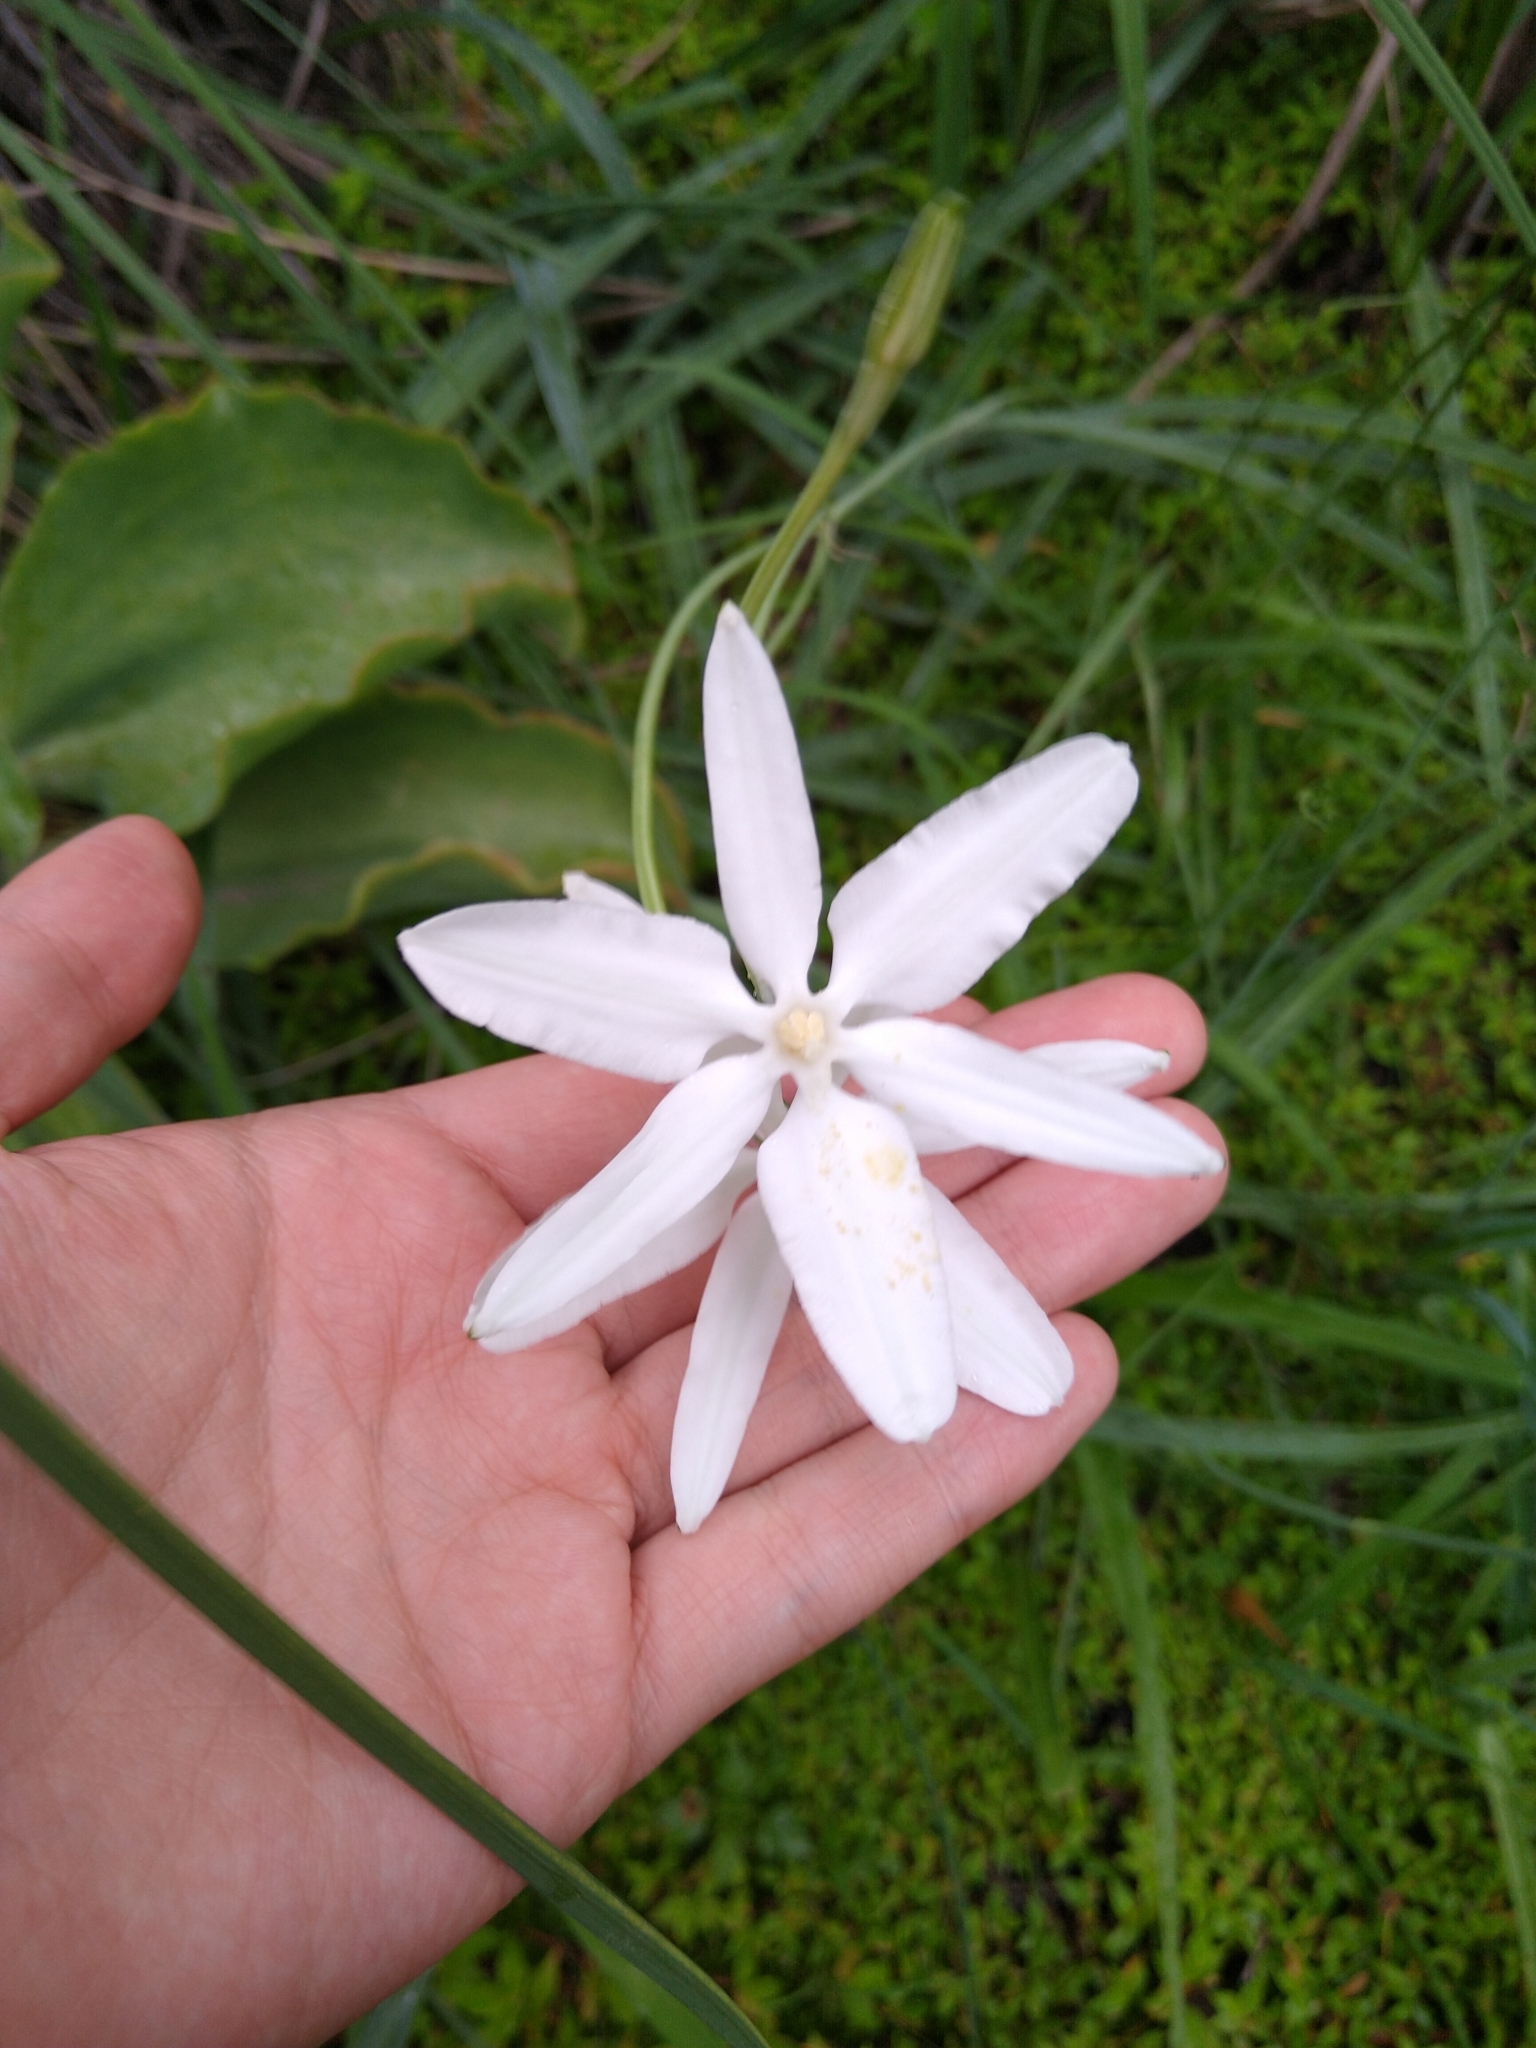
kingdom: Plantae
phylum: Tracheophyta
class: Liliopsida
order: Asparagales
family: Asparagaceae
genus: Milla
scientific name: Milla biflora
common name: Mexican-star
